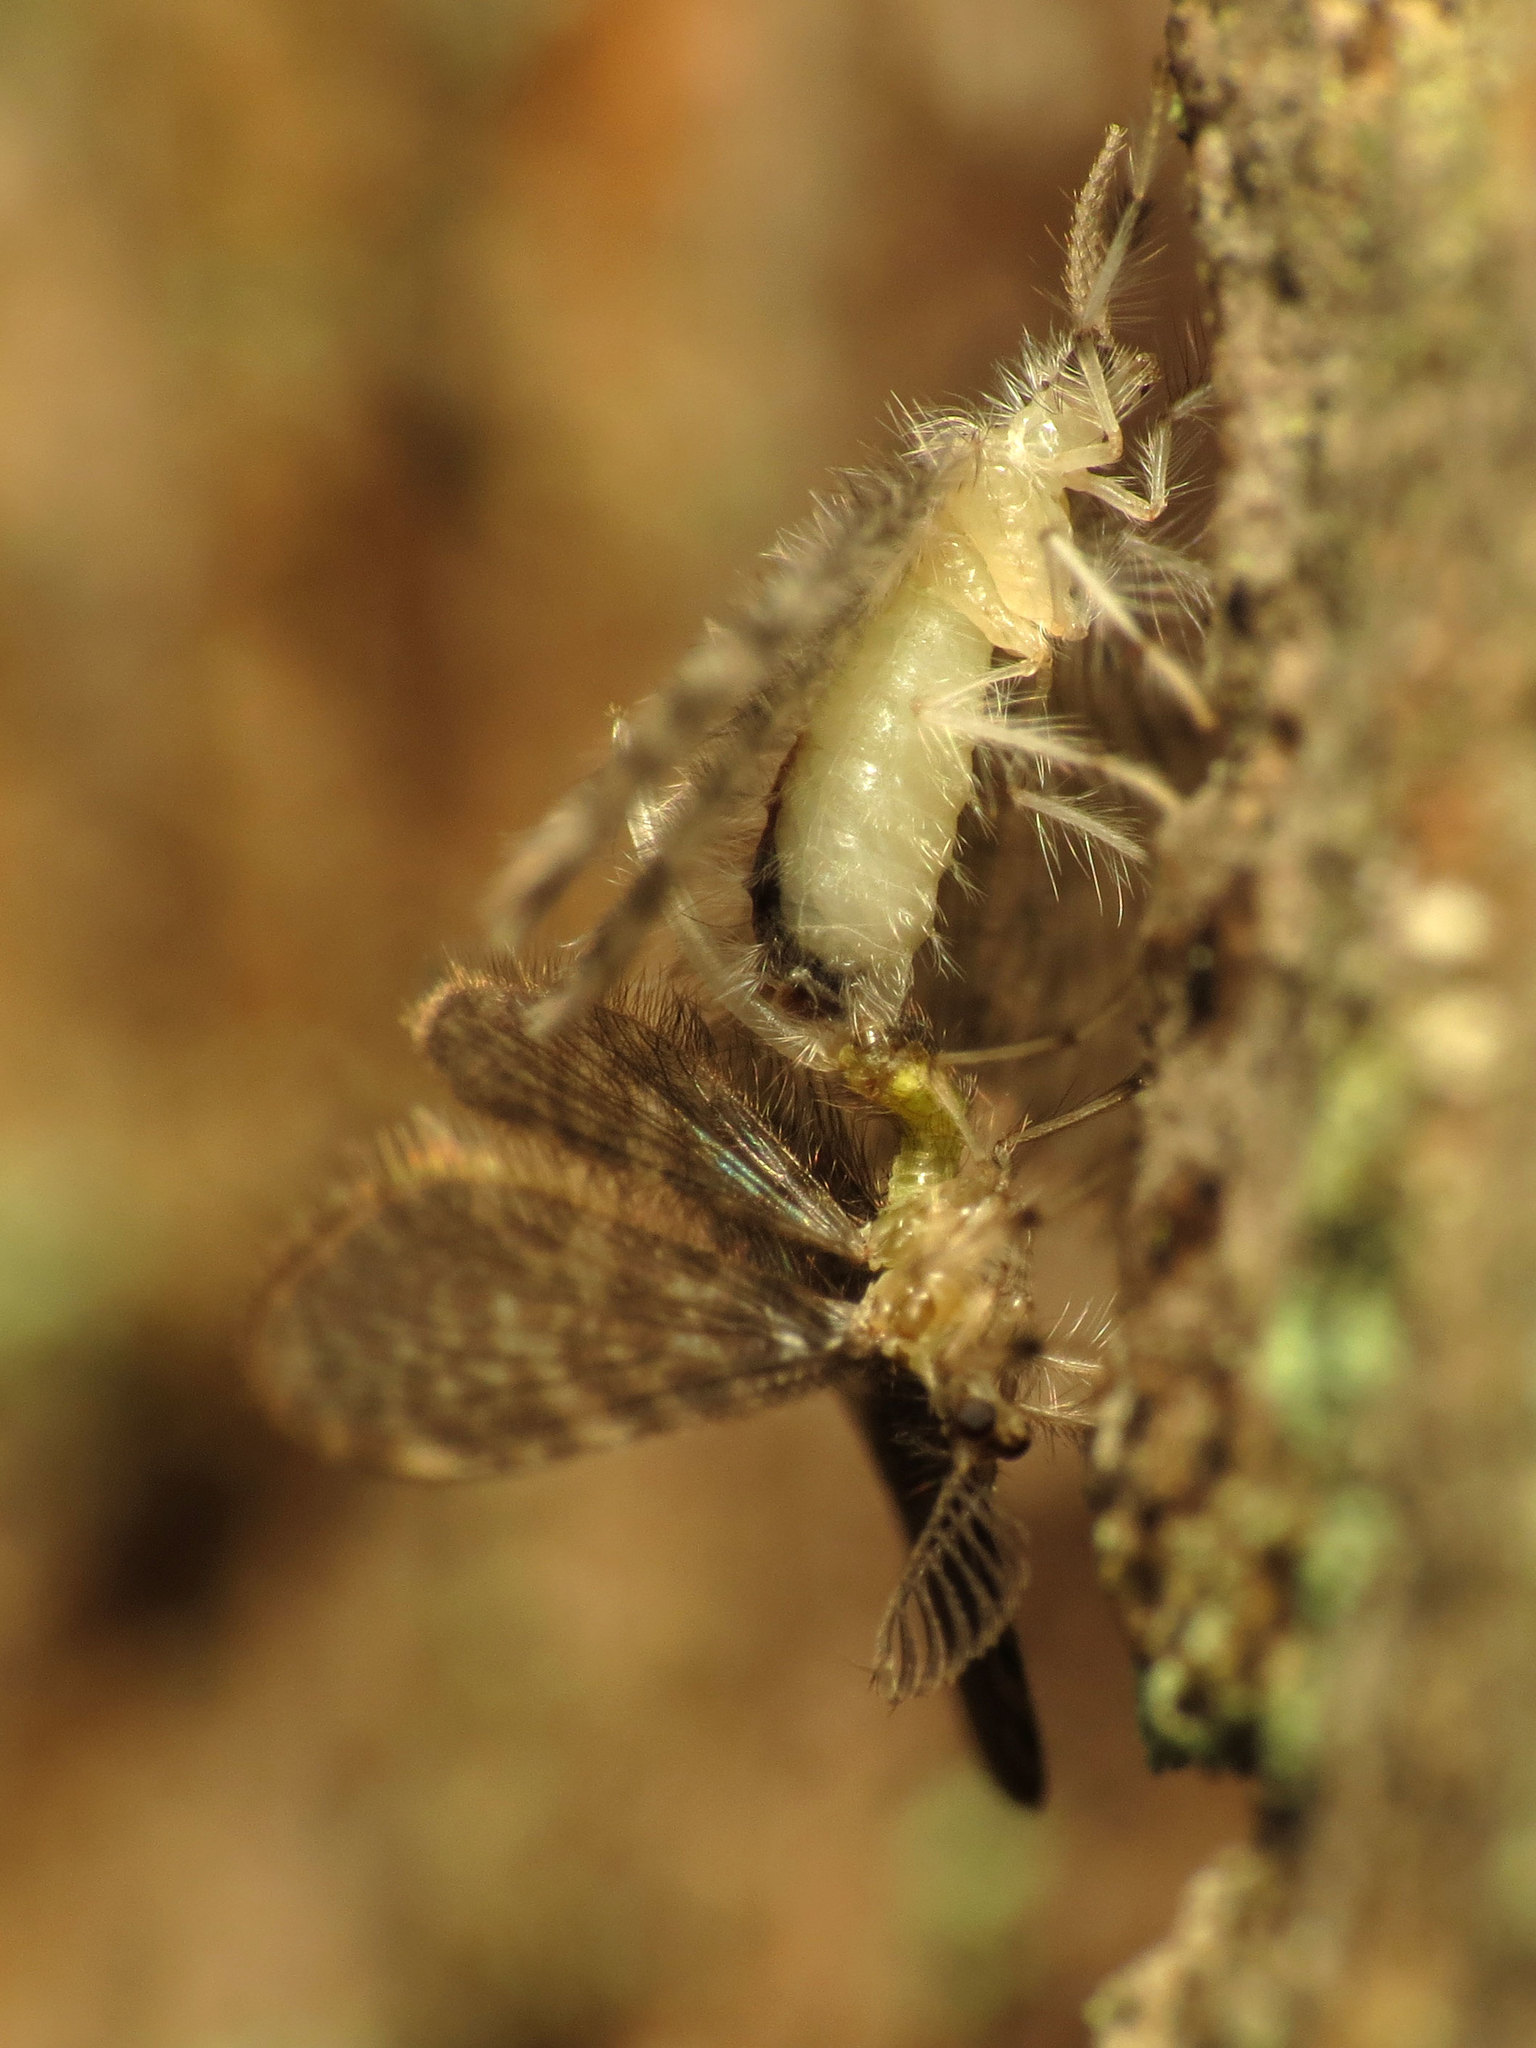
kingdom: Animalia
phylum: Arthropoda
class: Insecta
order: Neuroptera
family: Dilaridae
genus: Nallachius
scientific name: Nallachius americanus
